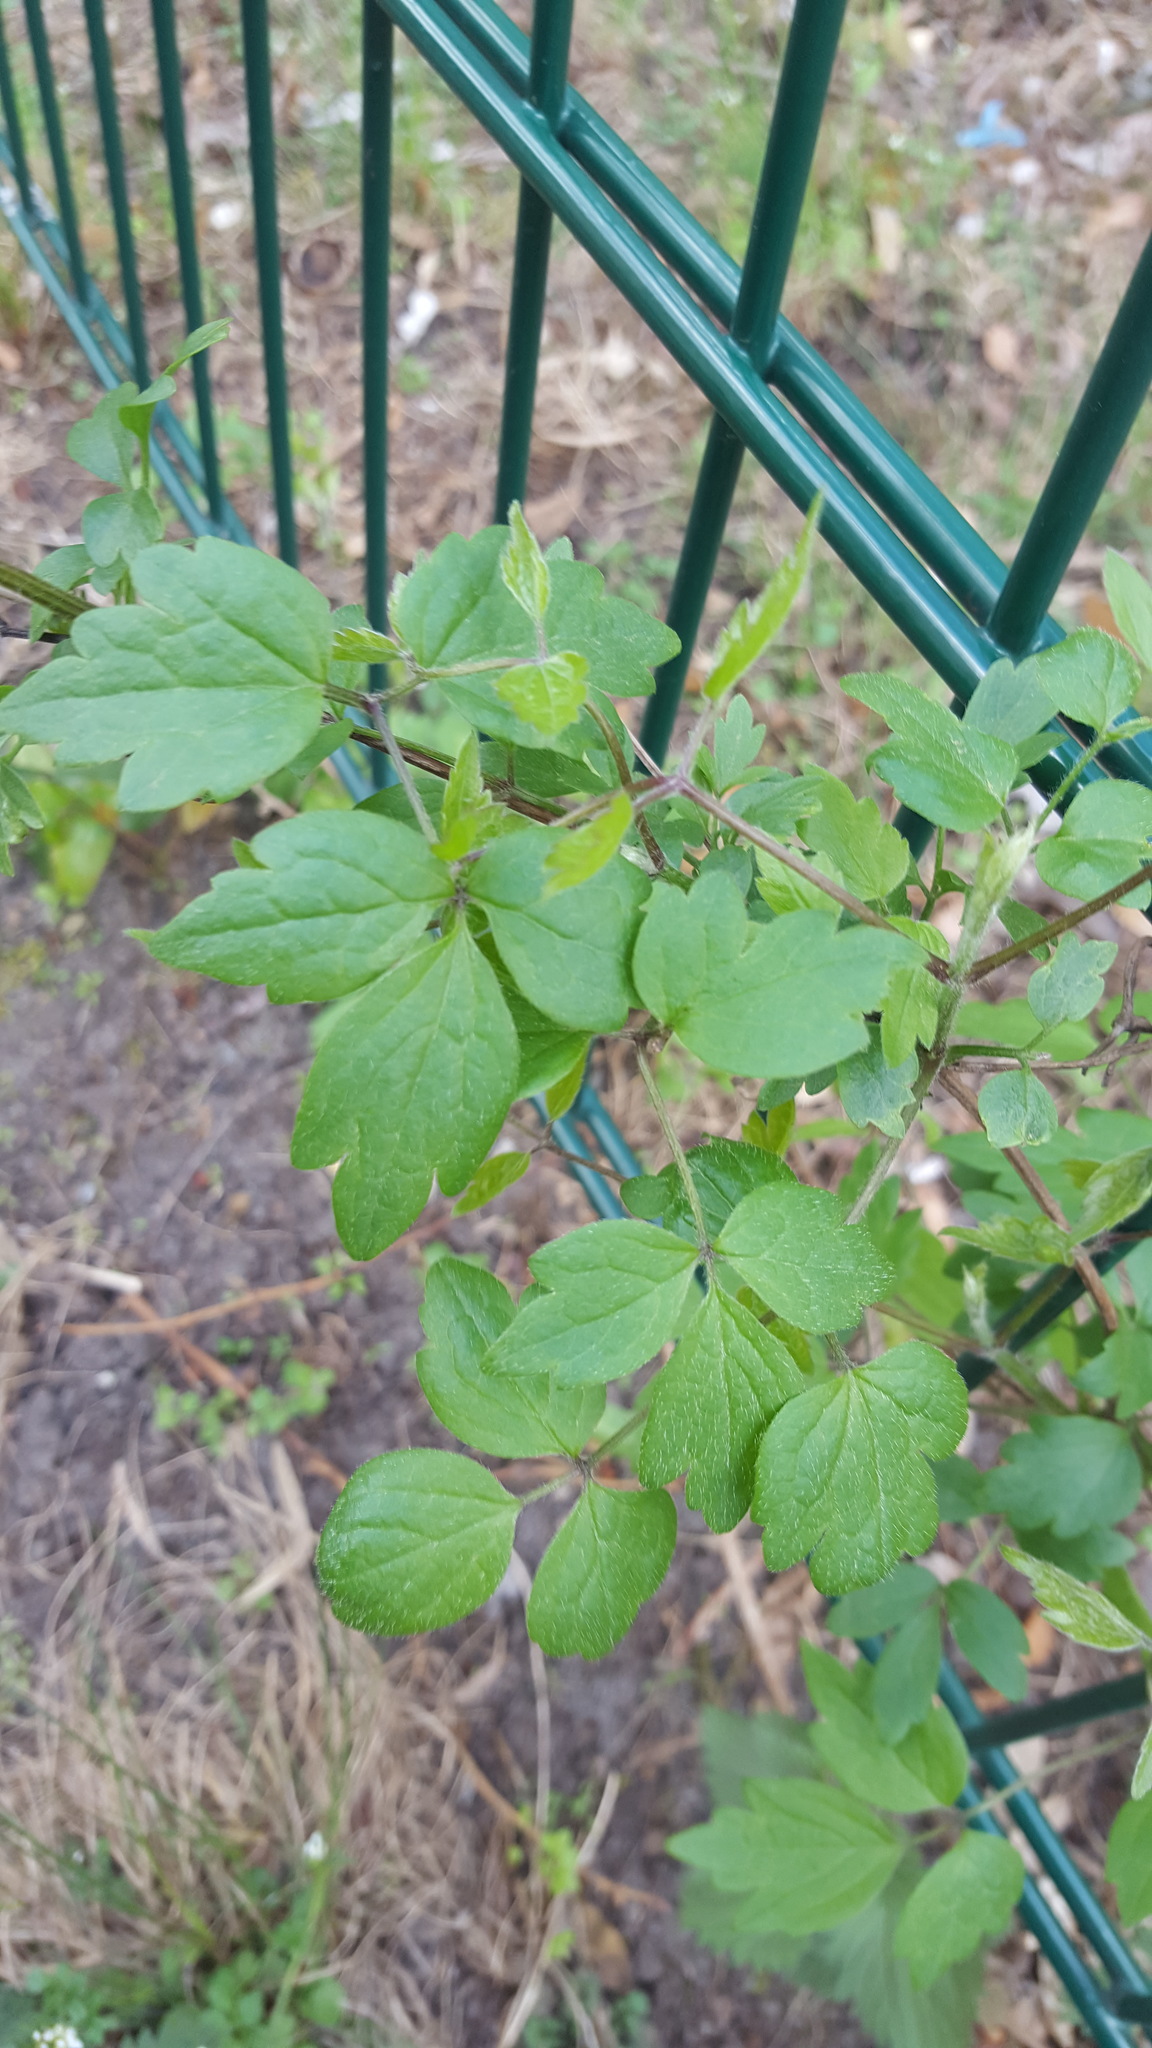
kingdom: Plantae
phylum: Tracheophyta
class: Magnoliopsida
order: Ranunculales
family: Ranunculaceae
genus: Clematis
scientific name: Clematis vitalba
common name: Evergreen clematis
